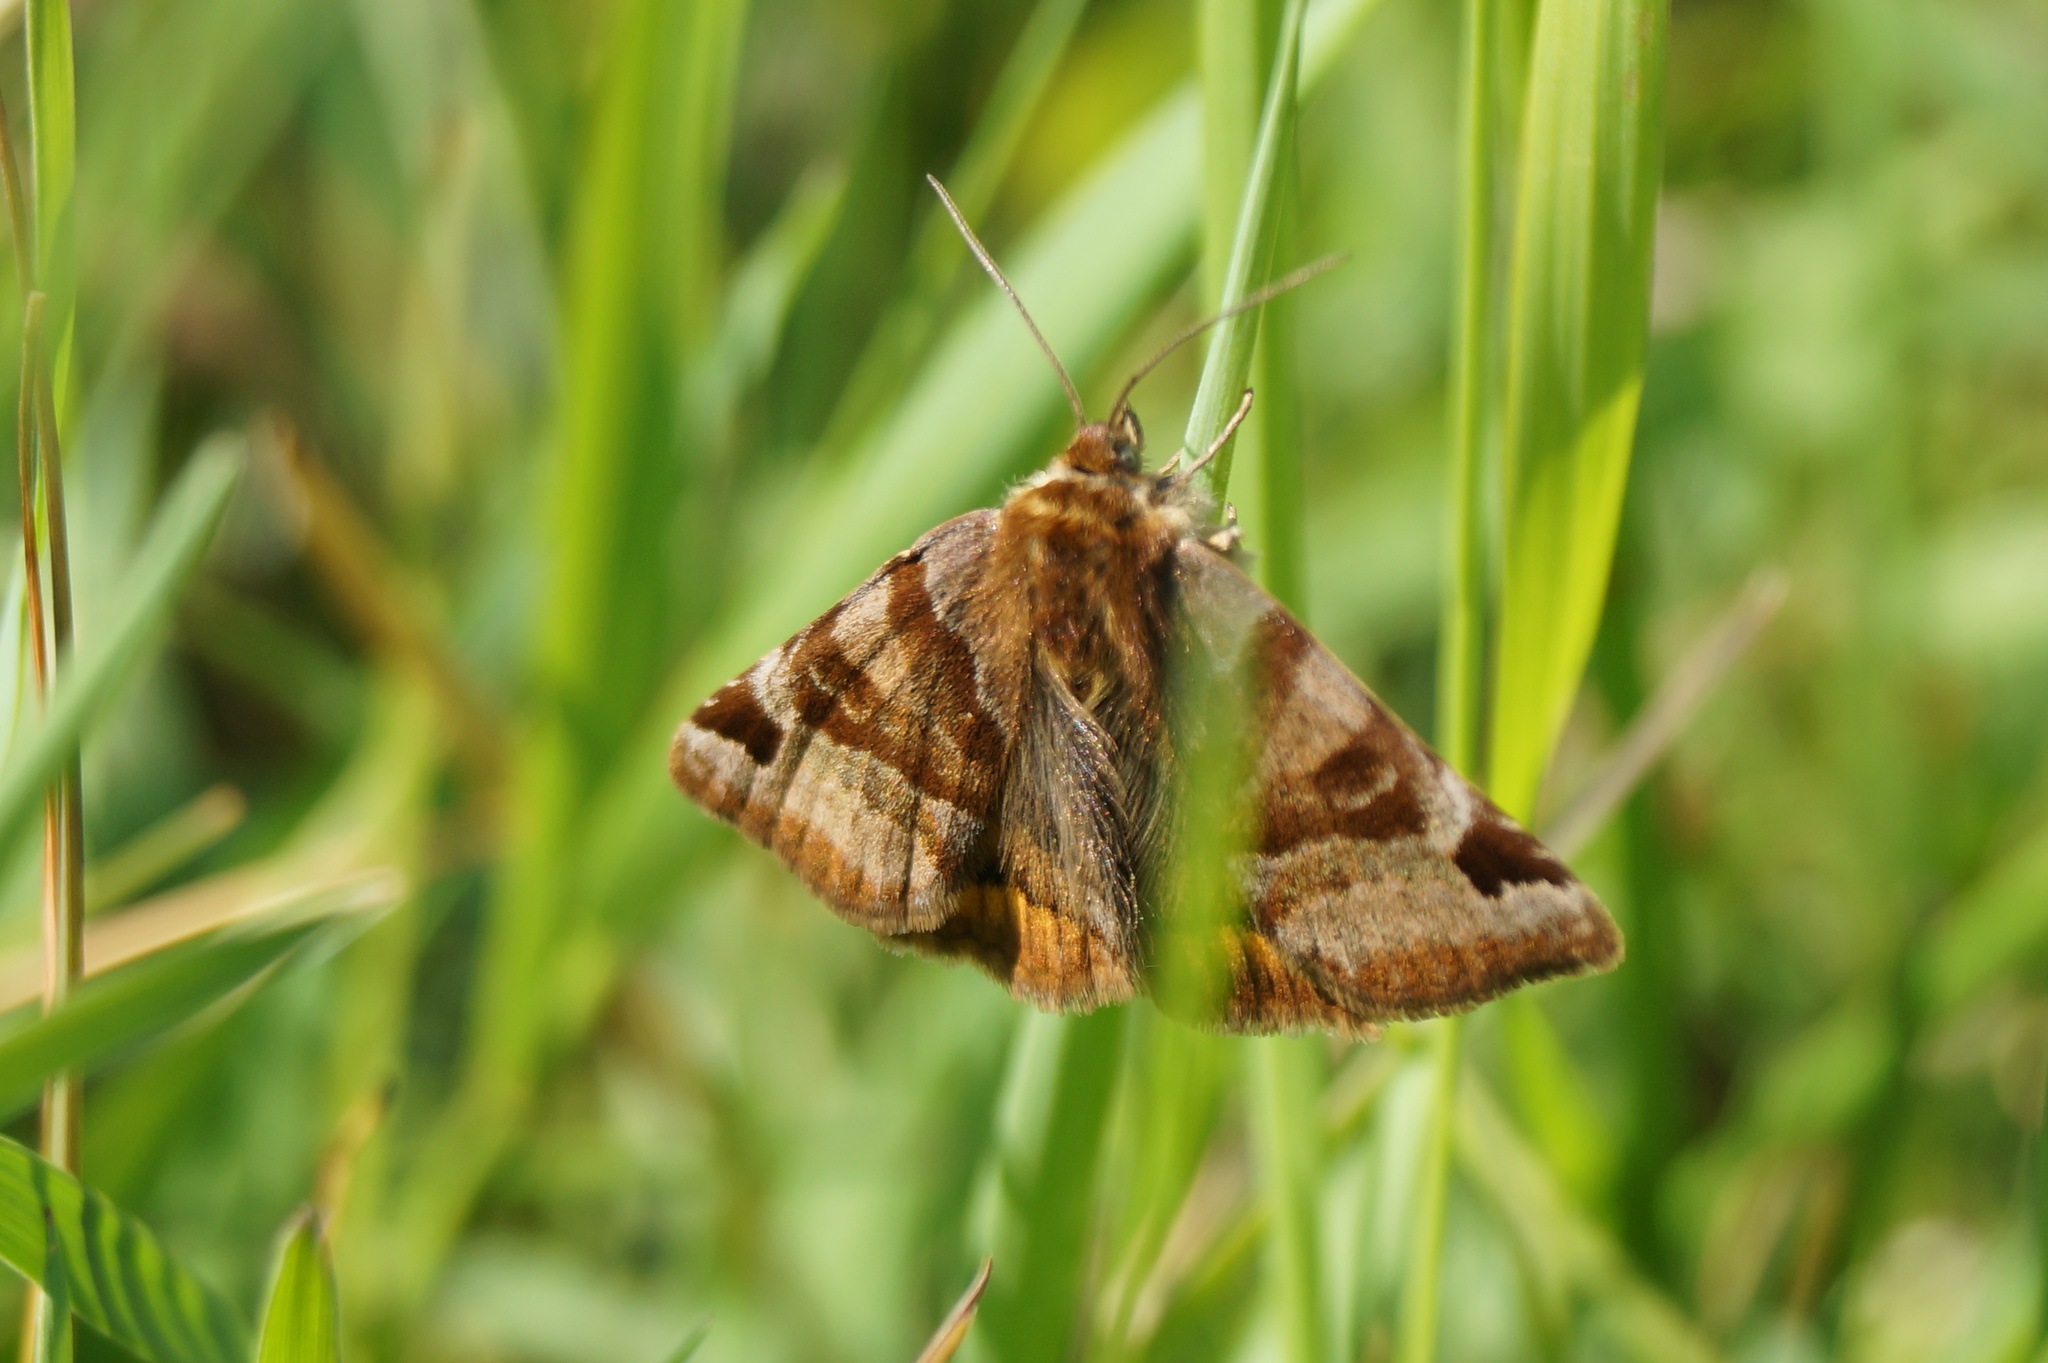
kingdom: Animalia
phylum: Arthropoda
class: Insecta
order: Lepidoptera
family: Erebidae
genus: Euclidia
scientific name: Euclidia glyphica
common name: Burnet companion
